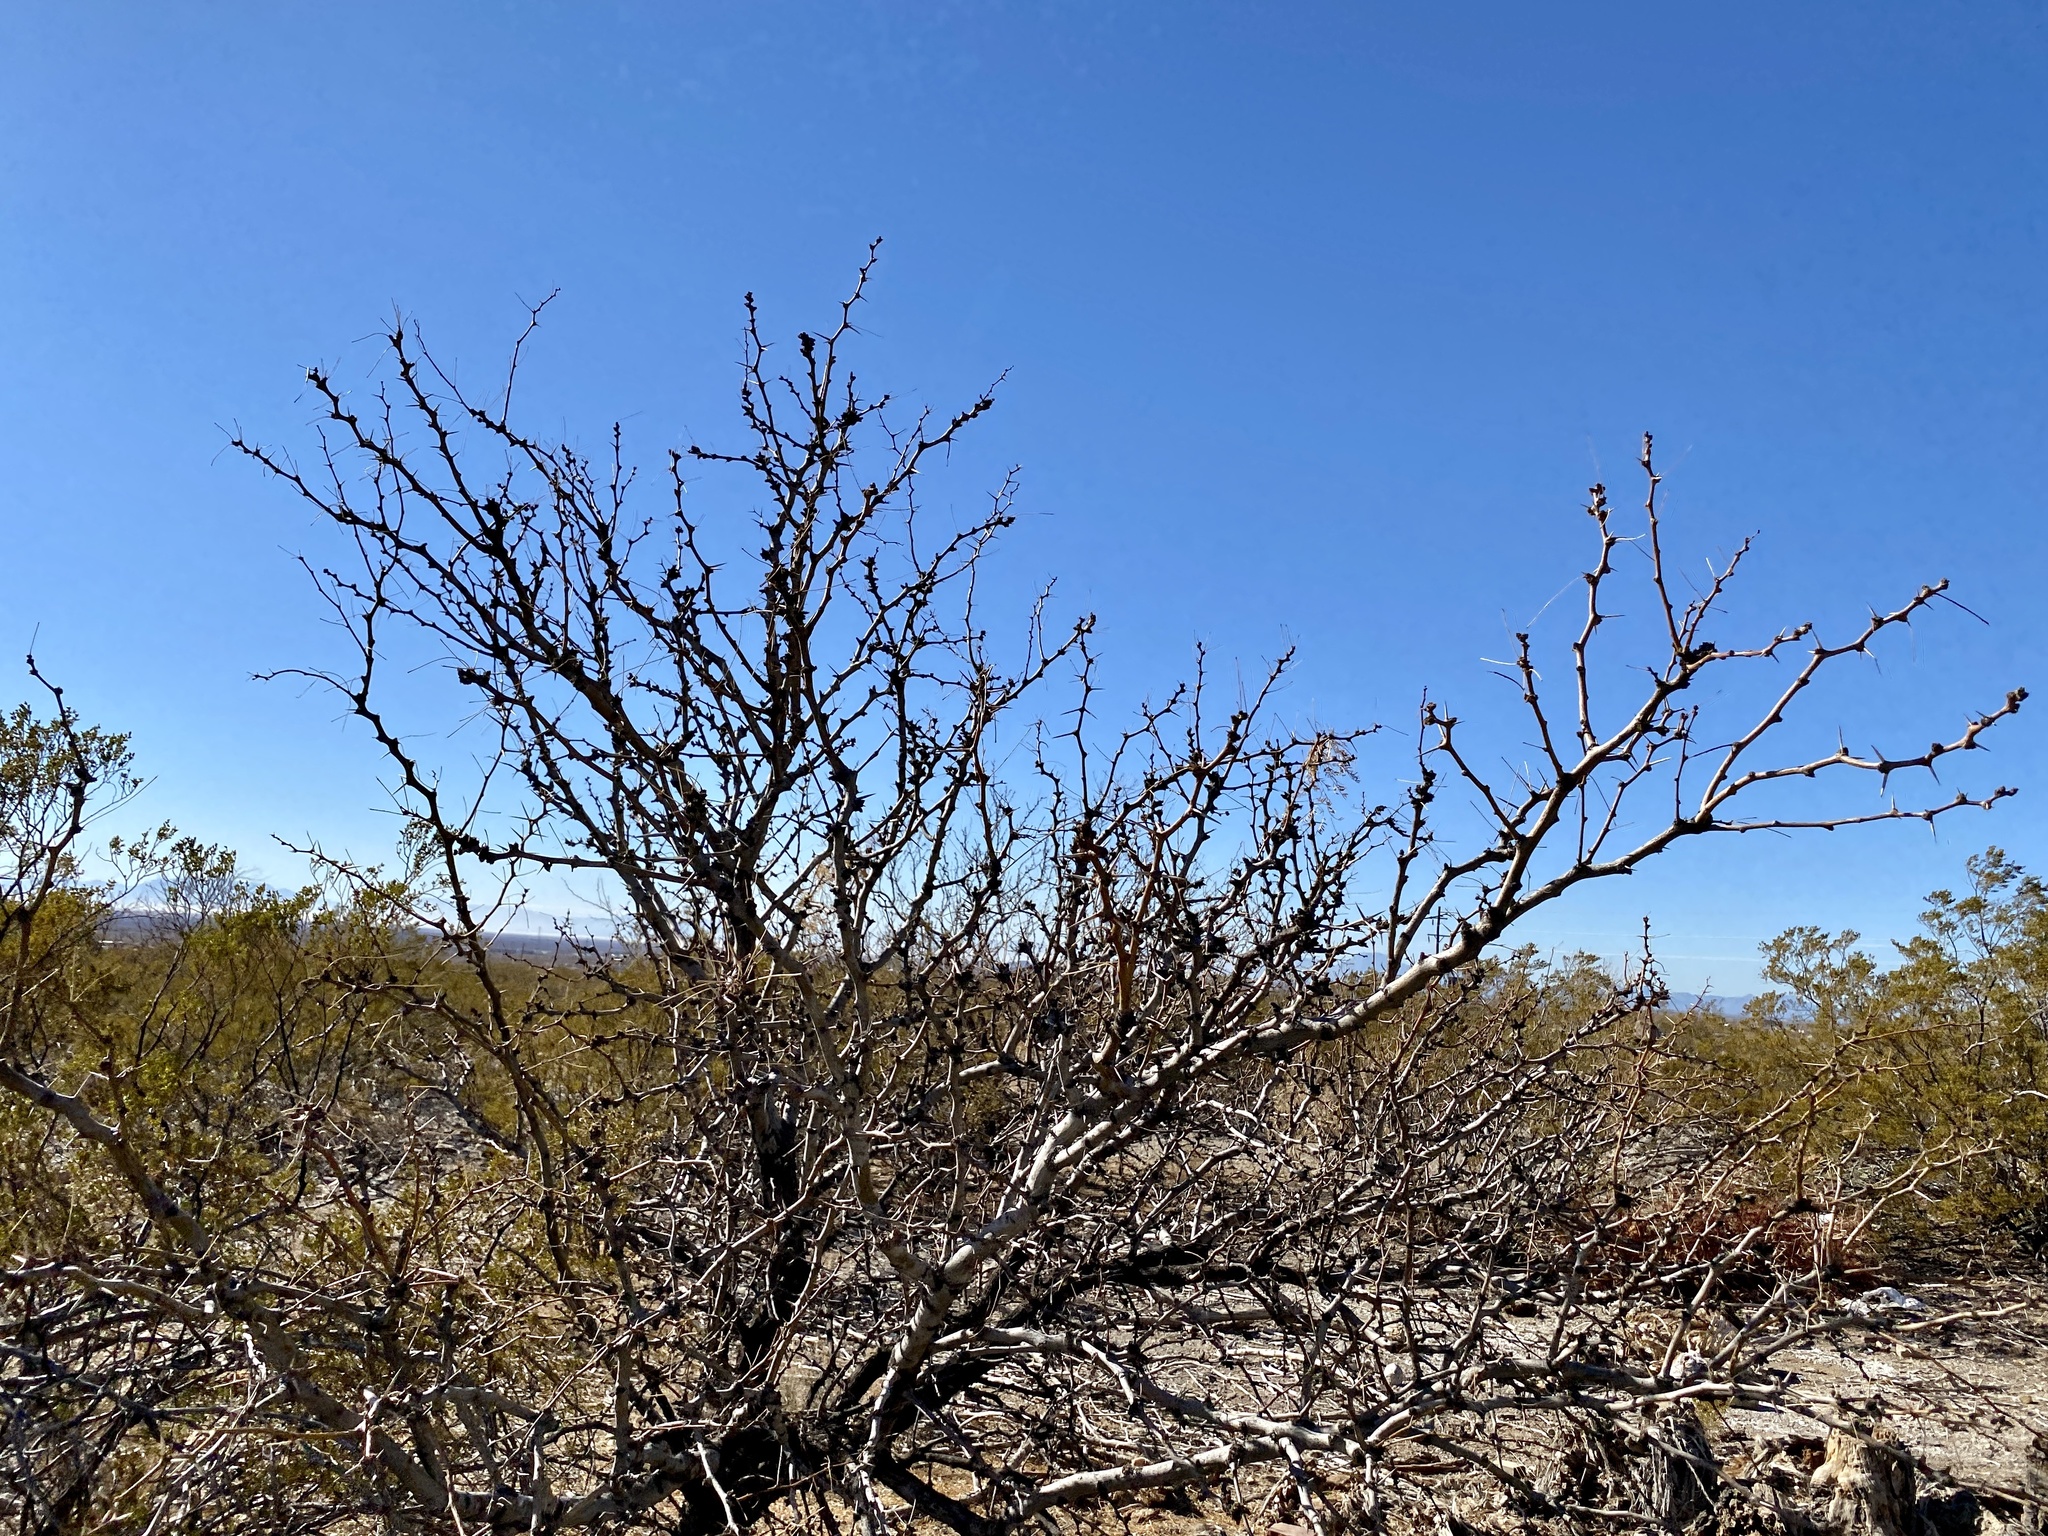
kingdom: Plantae
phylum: Tracheophyta
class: Magnoliopsida
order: Fabales
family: Fabaceae
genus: Prosopis
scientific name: Prosopis glandulosa
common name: Honey mesquite
